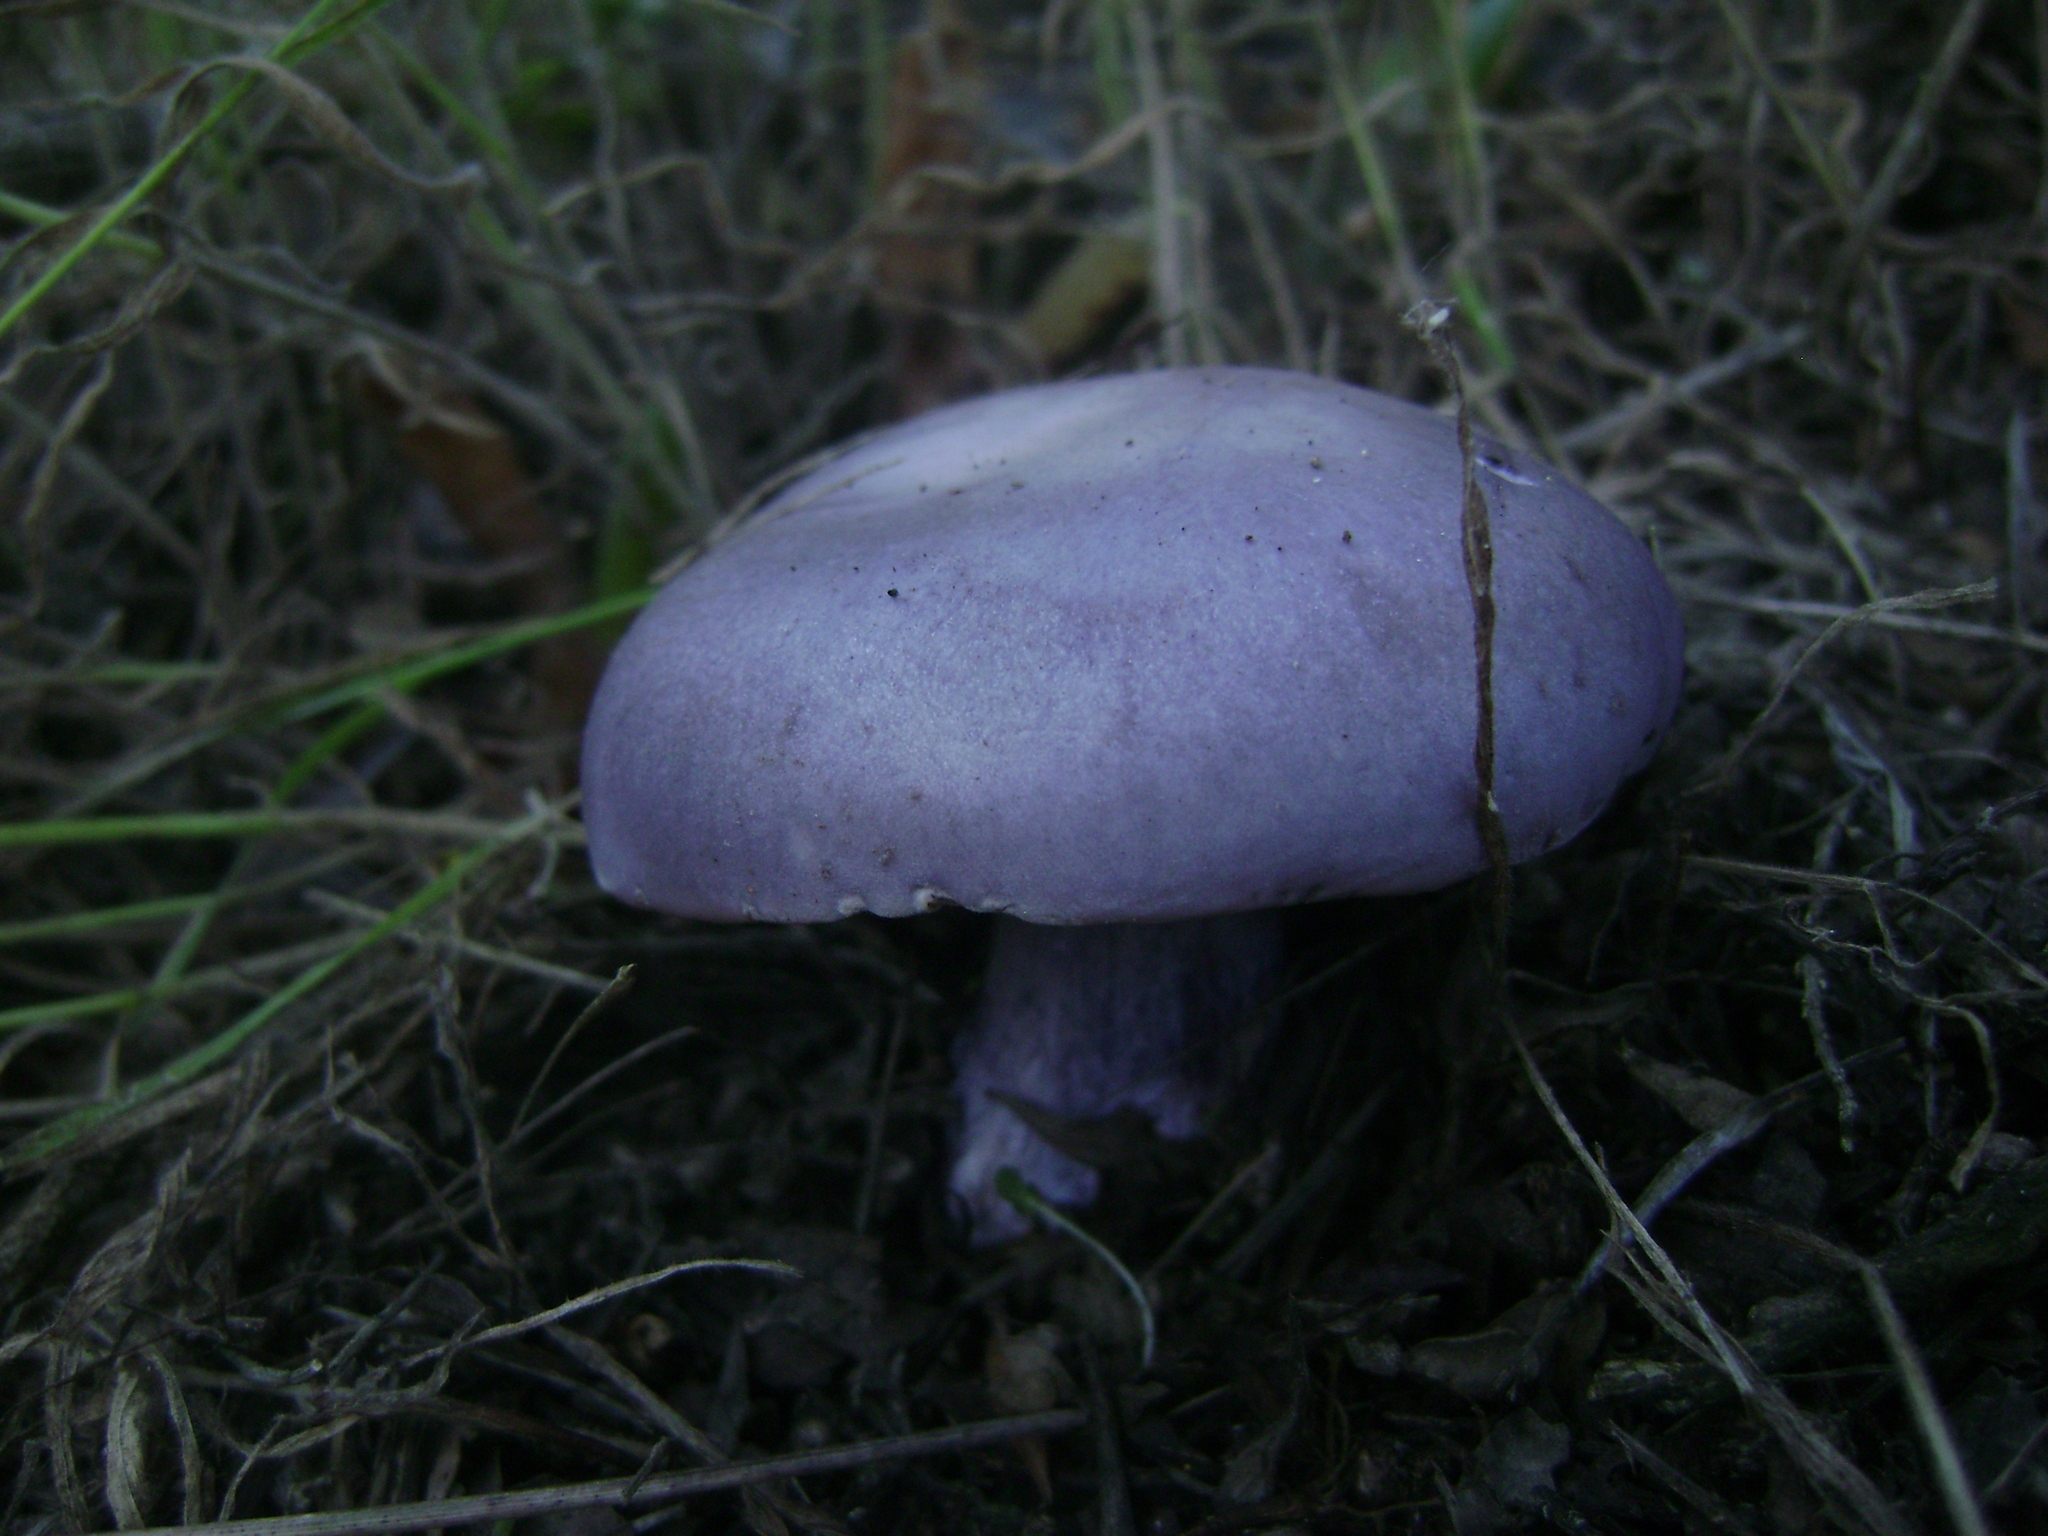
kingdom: Fungi
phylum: Basidiomycota
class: Agaricomycetes
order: Agaricales
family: Tricholomataceae
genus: Collybia
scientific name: Collybia
